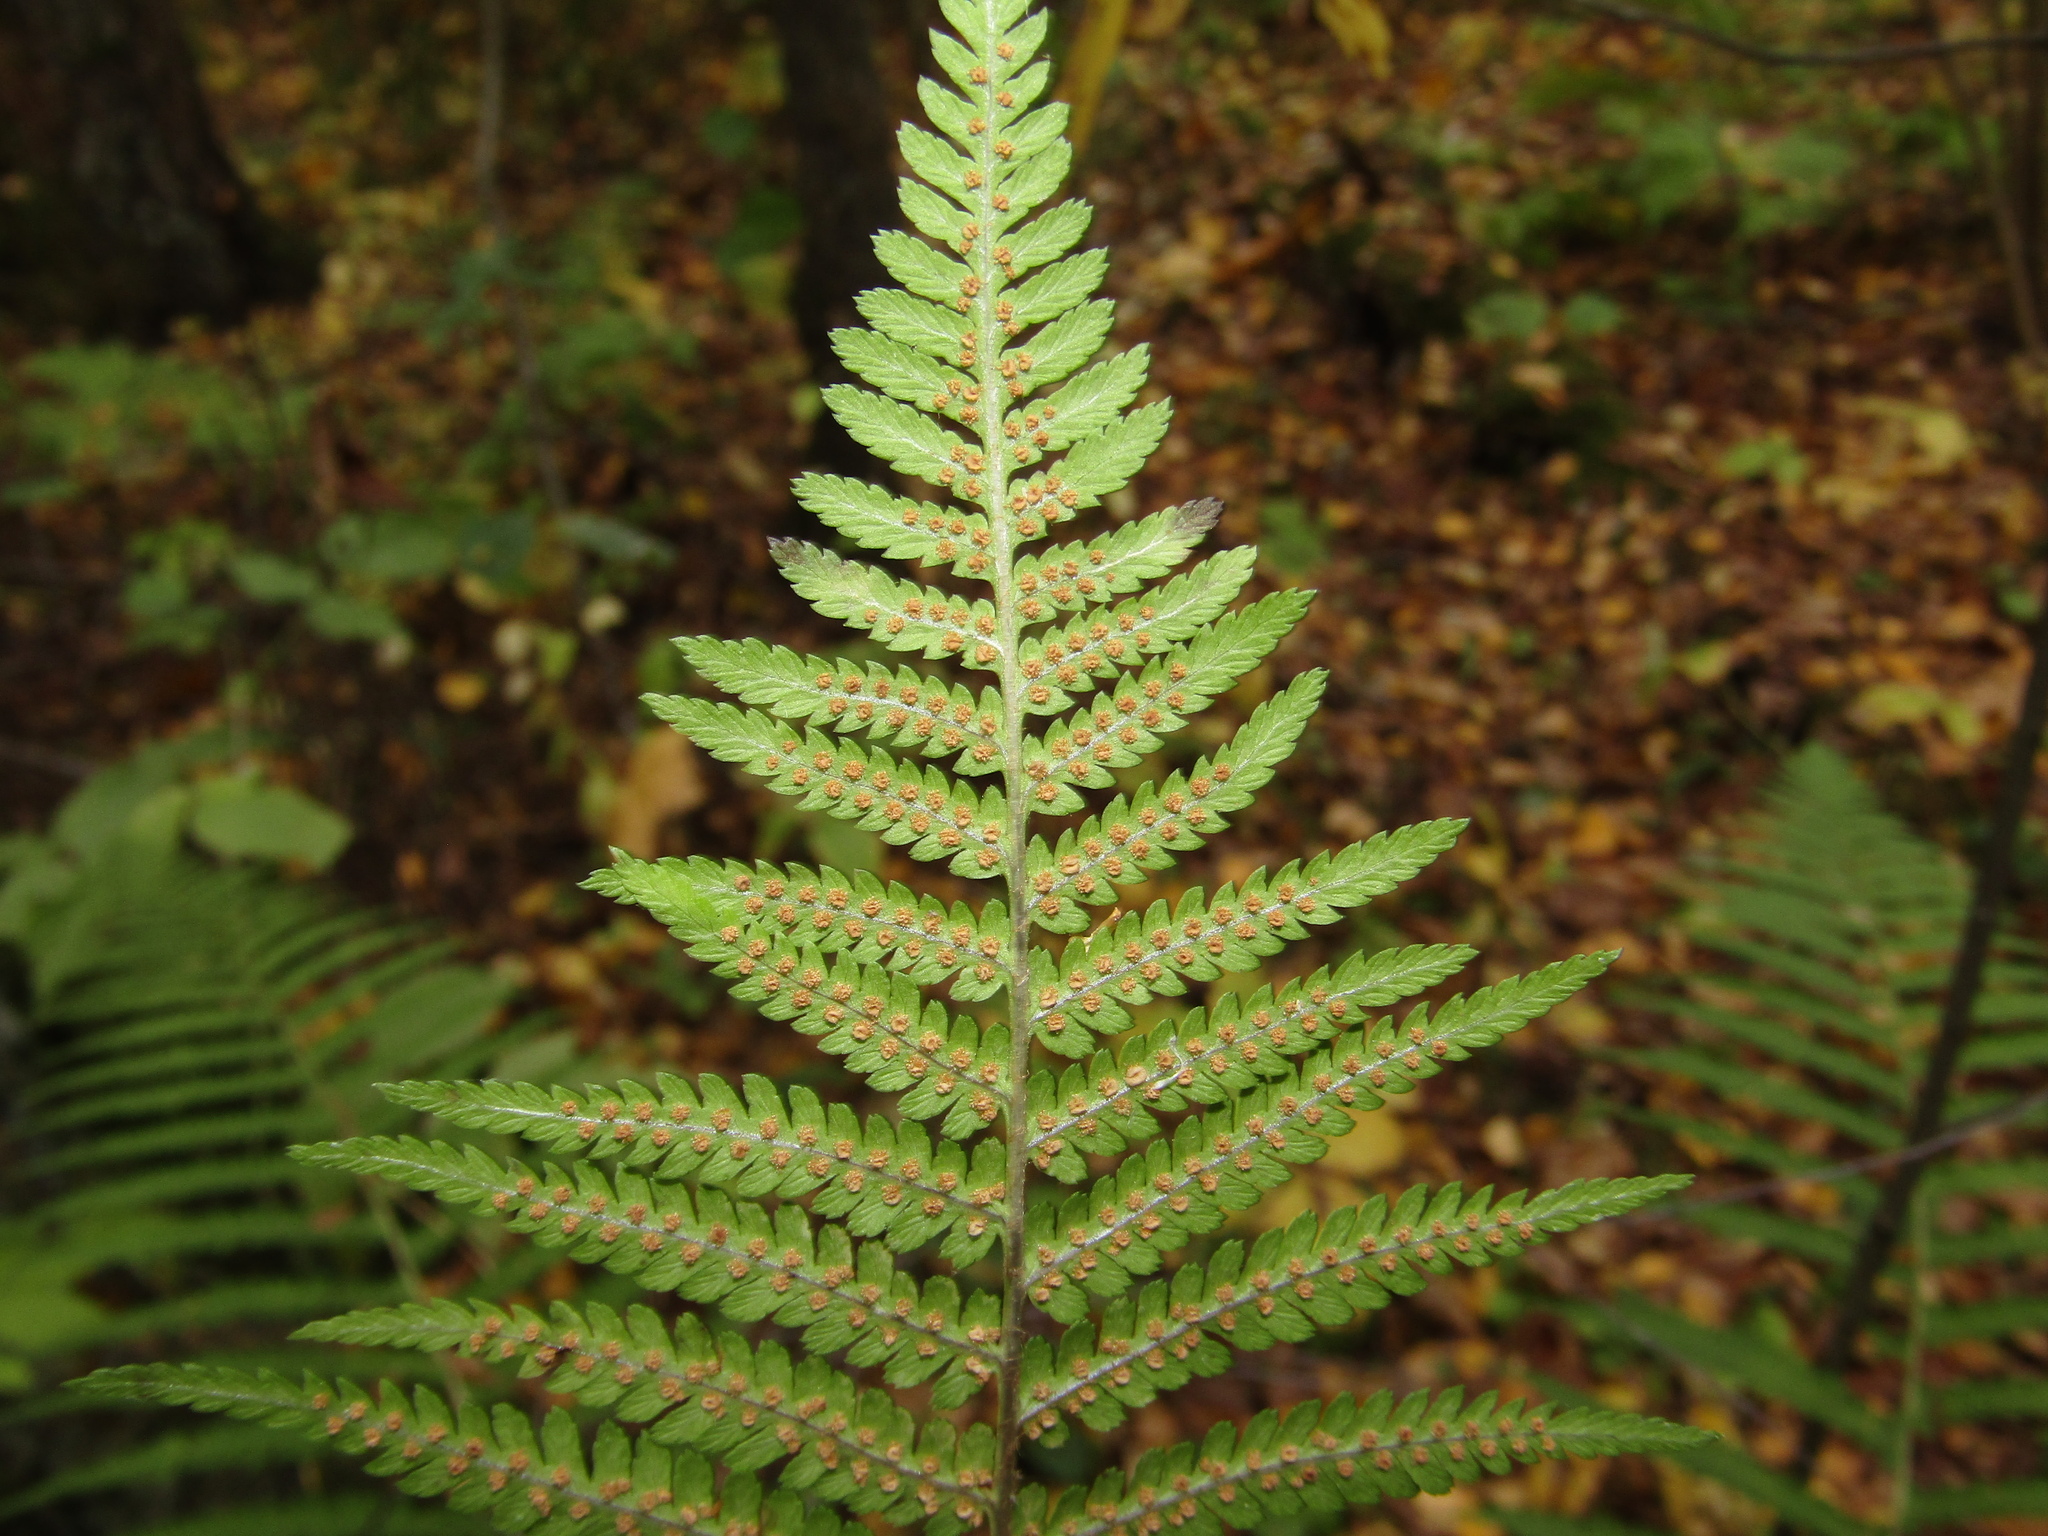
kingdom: Plantae
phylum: Tracheophyta
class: Polypodiopsida
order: Polypodiales
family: Dryopteridaceae
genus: Dryopteris
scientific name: Dryopteris filix-mas
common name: Male fern
